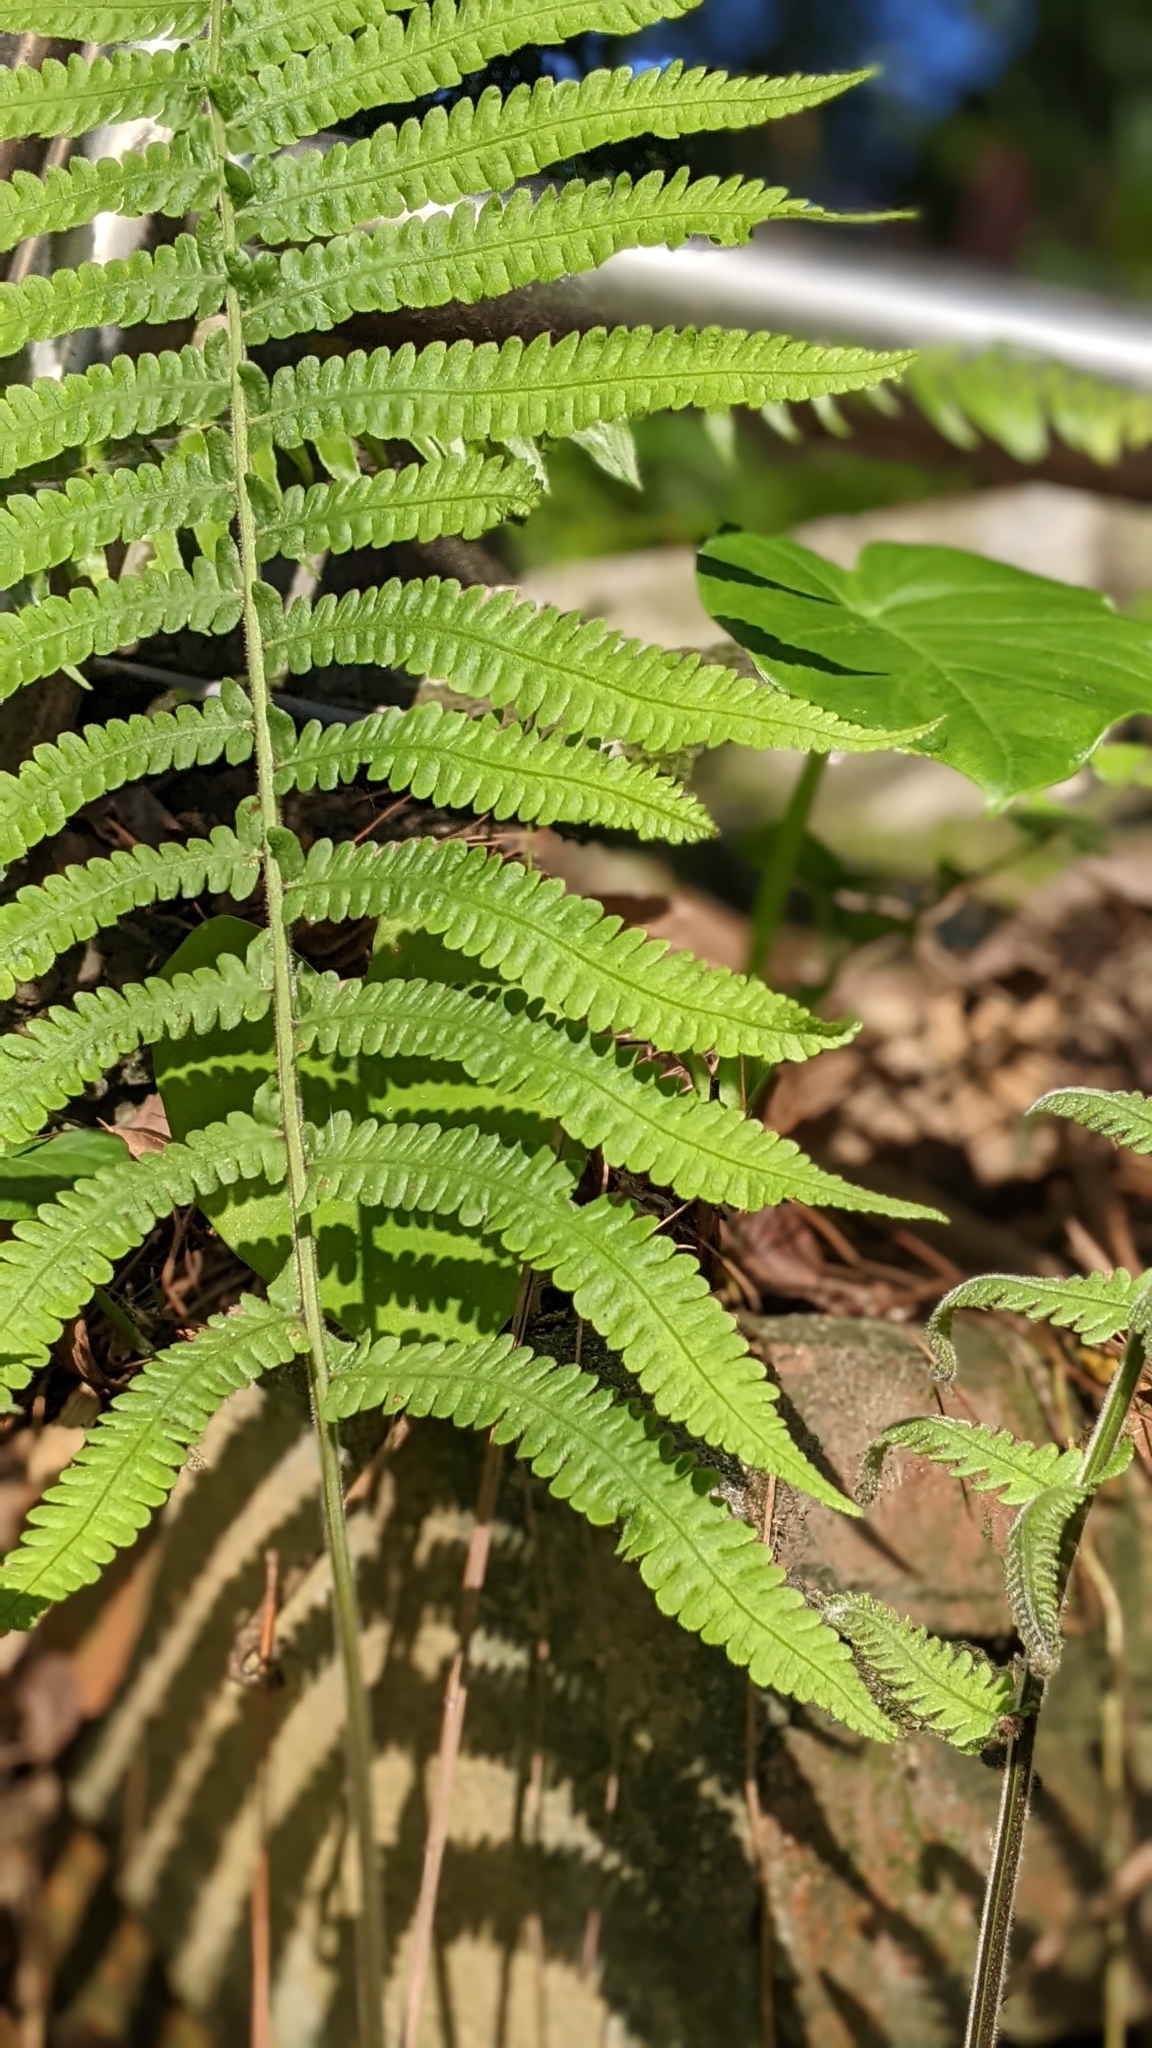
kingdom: Plantae
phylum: Tracheophyta
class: Polypodiopsida
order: Polypodiales
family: Thelypteridaceae
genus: Christella
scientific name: Christella parasitica
